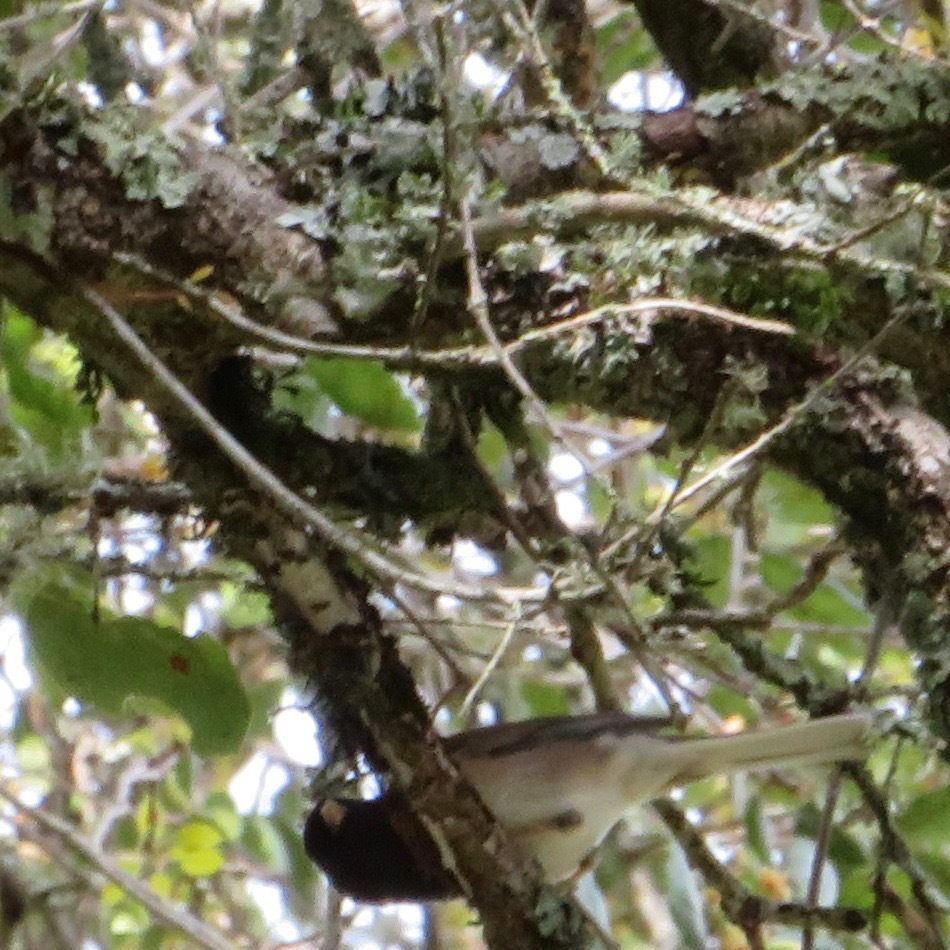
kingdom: Animalia
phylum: Chordata
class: Aves
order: Passeriformes
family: Passerellidae
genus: Junco
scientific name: Junco hyemalis
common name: Dark-eyed junco
